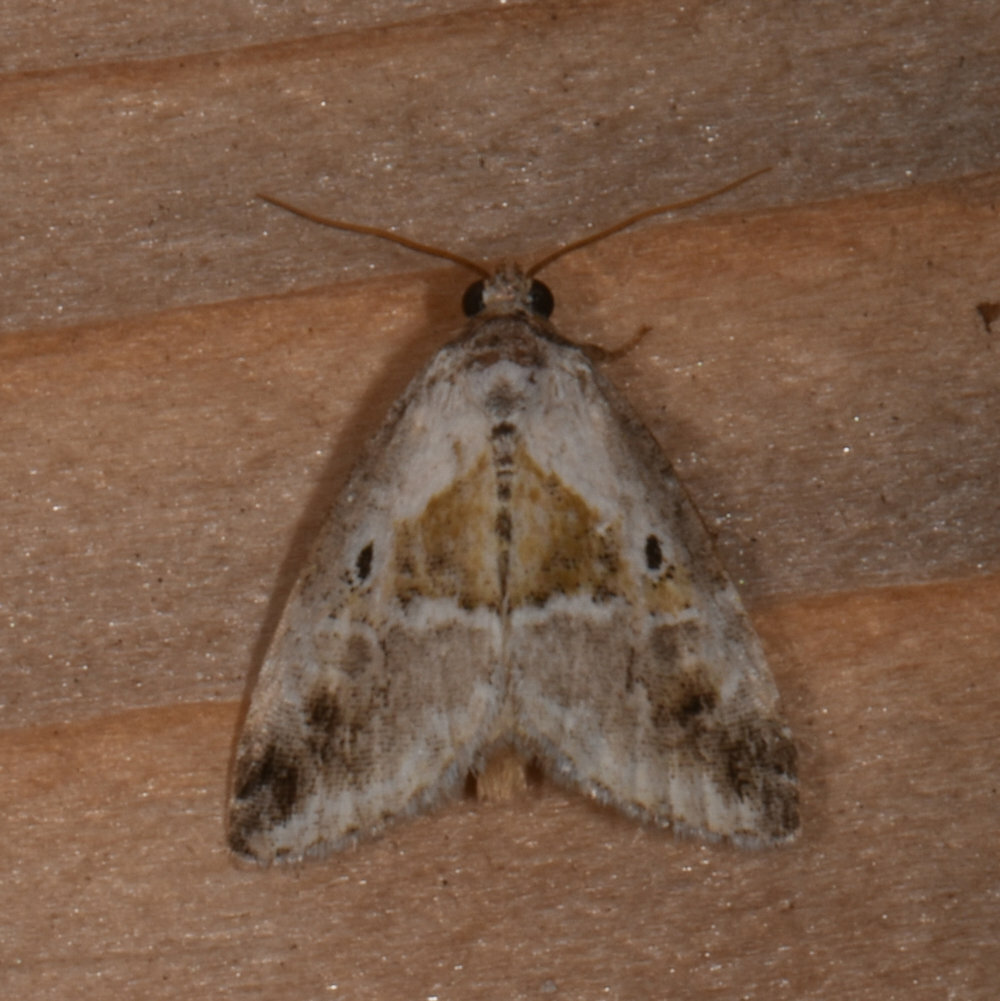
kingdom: Animalia
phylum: Arthropoda
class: Insecta
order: Lepidoptera
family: Noctuidae
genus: Maliattha
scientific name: Maliattha synochitis
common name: Black-dotted glyph
